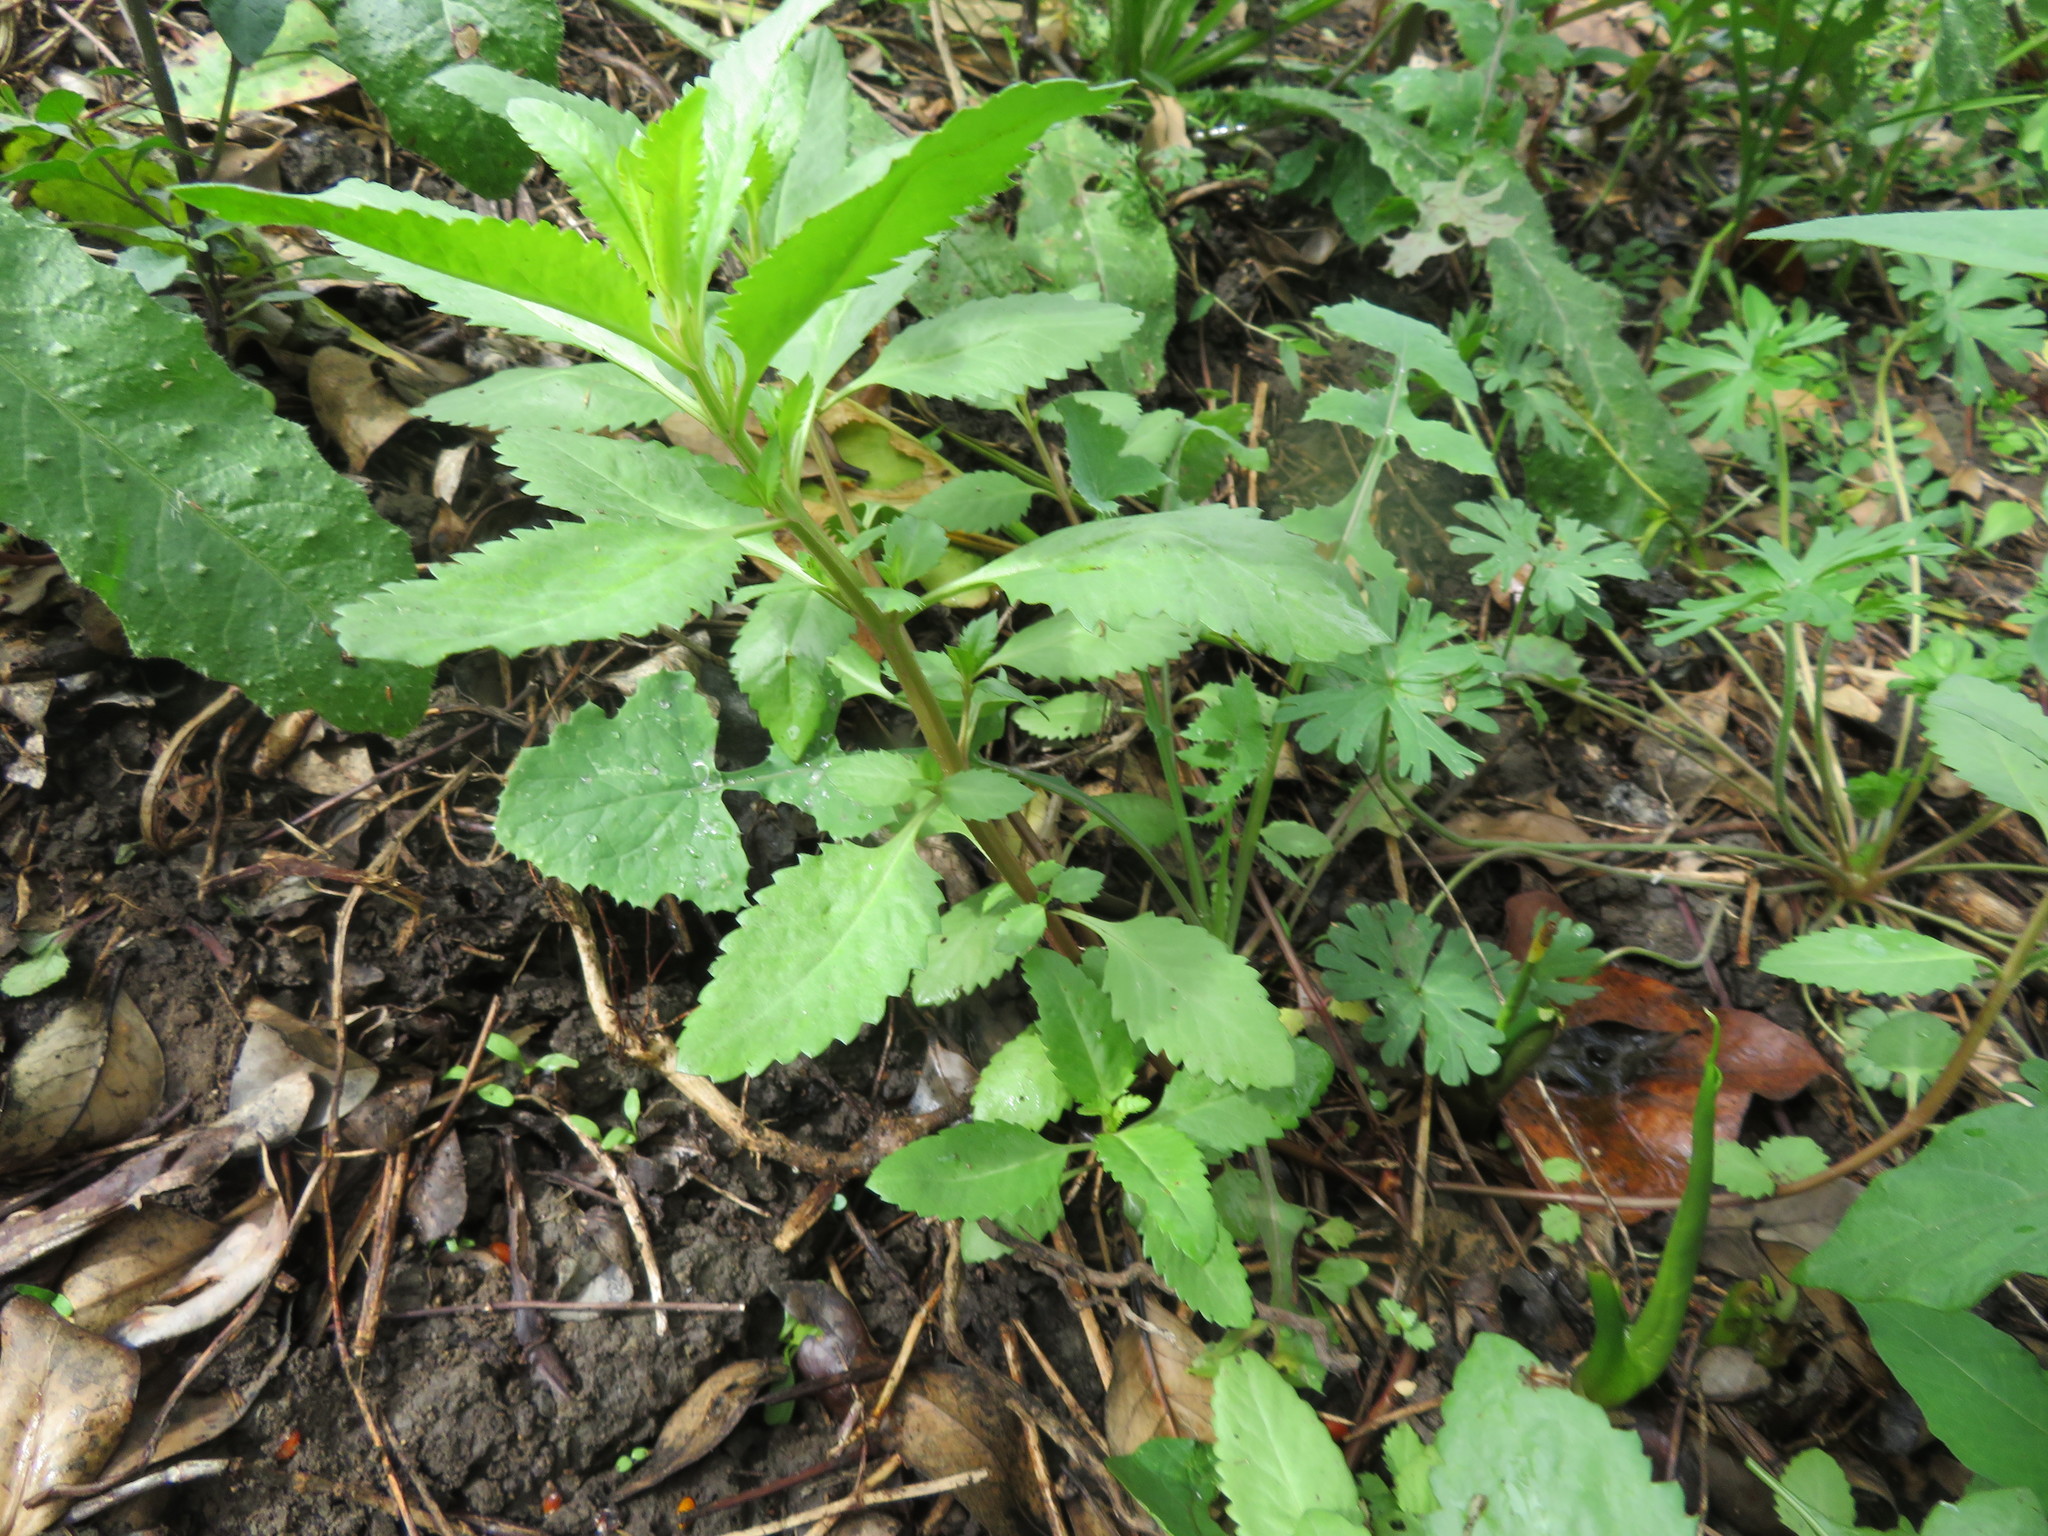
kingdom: Plantae
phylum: Tracheophyta
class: Magnoliopsida
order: Saxifragales
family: Haloragaceae
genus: Haloragis
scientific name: Haloragis erecta
